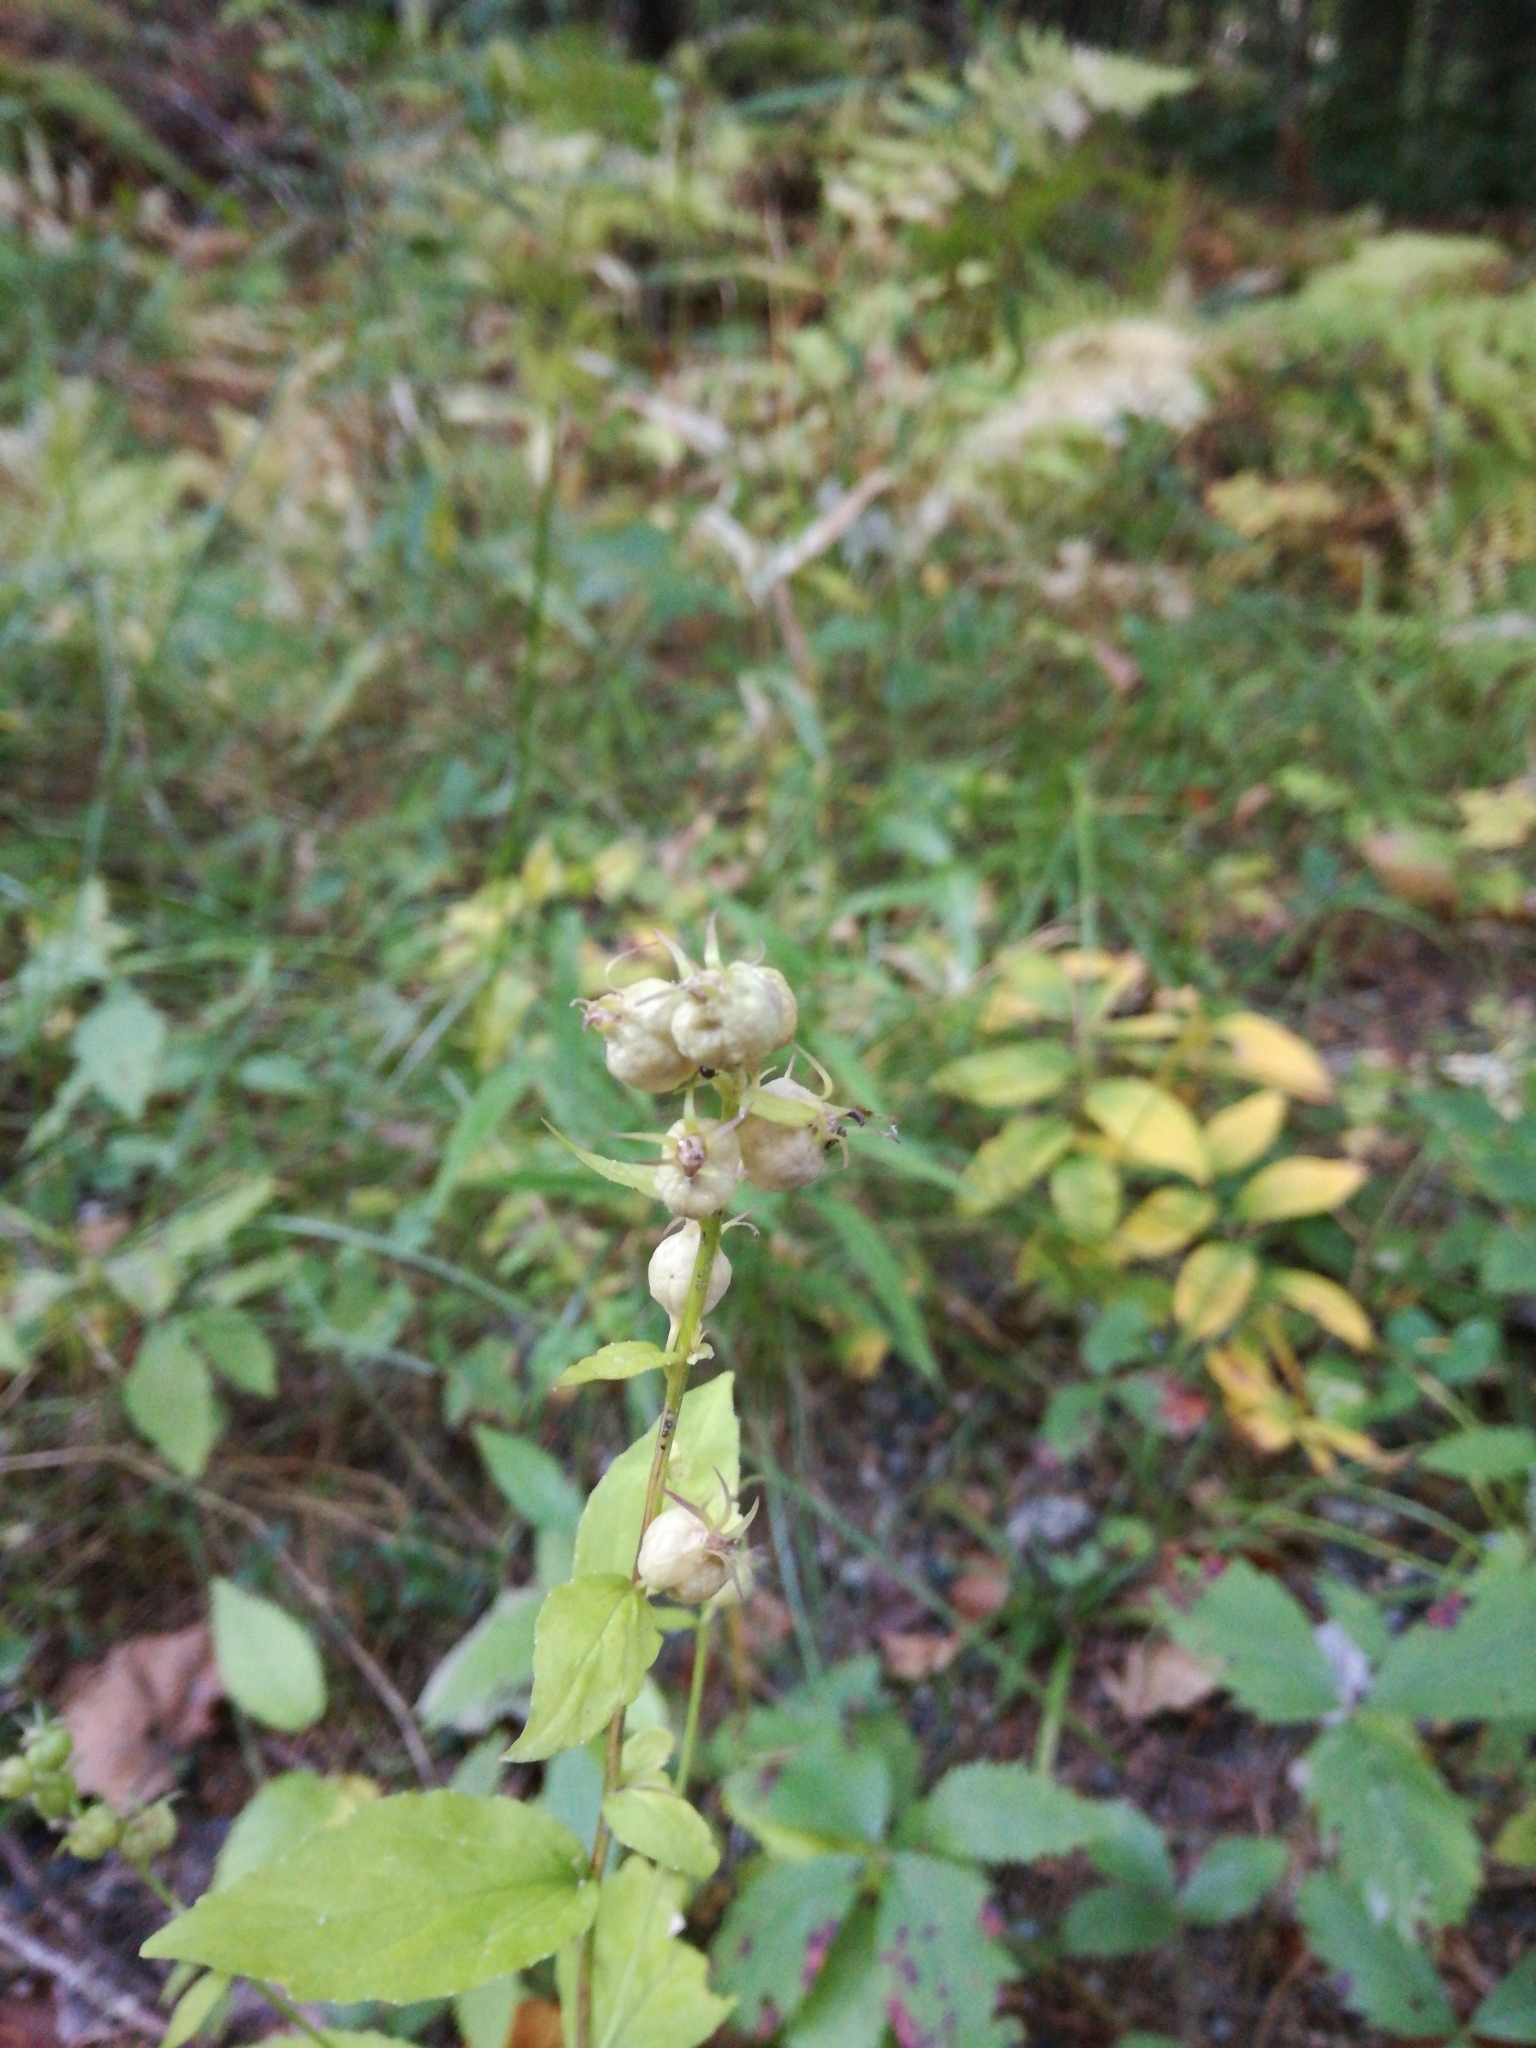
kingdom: Plantae
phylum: Tracheophyta
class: Magnoliopsida
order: Asterales
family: Campanulaceae
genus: Lobelia
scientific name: Lobelia inflata
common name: Indian tobacco
